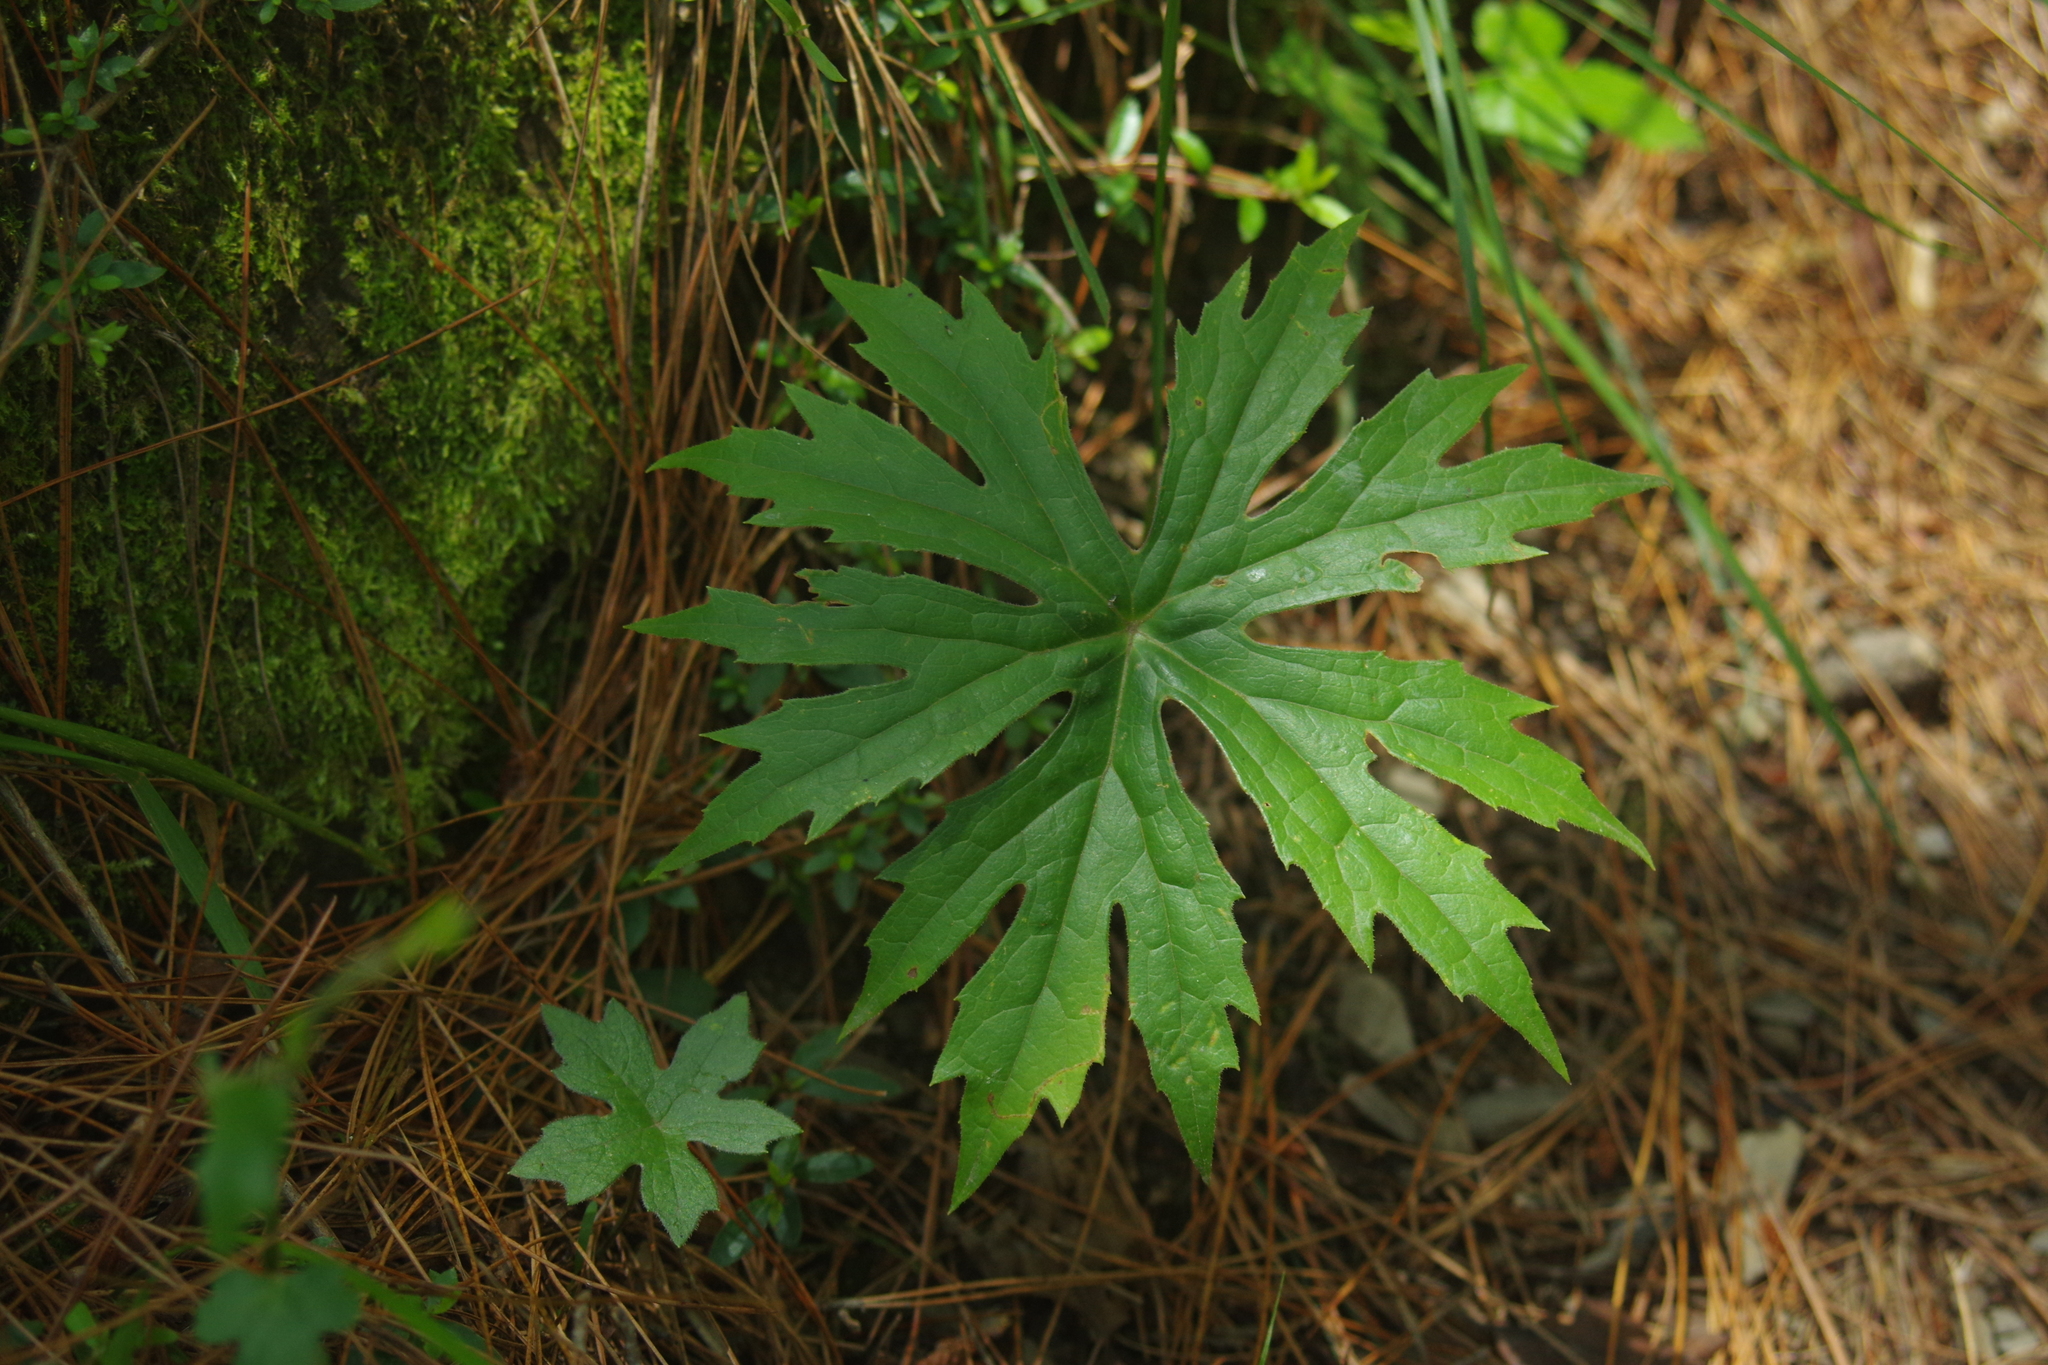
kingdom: Plantae
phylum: Tracheophyta
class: Magnoliopsida
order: Asterales
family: Asteraceae
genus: Syneilesis
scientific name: Syneilesis subglabrata
